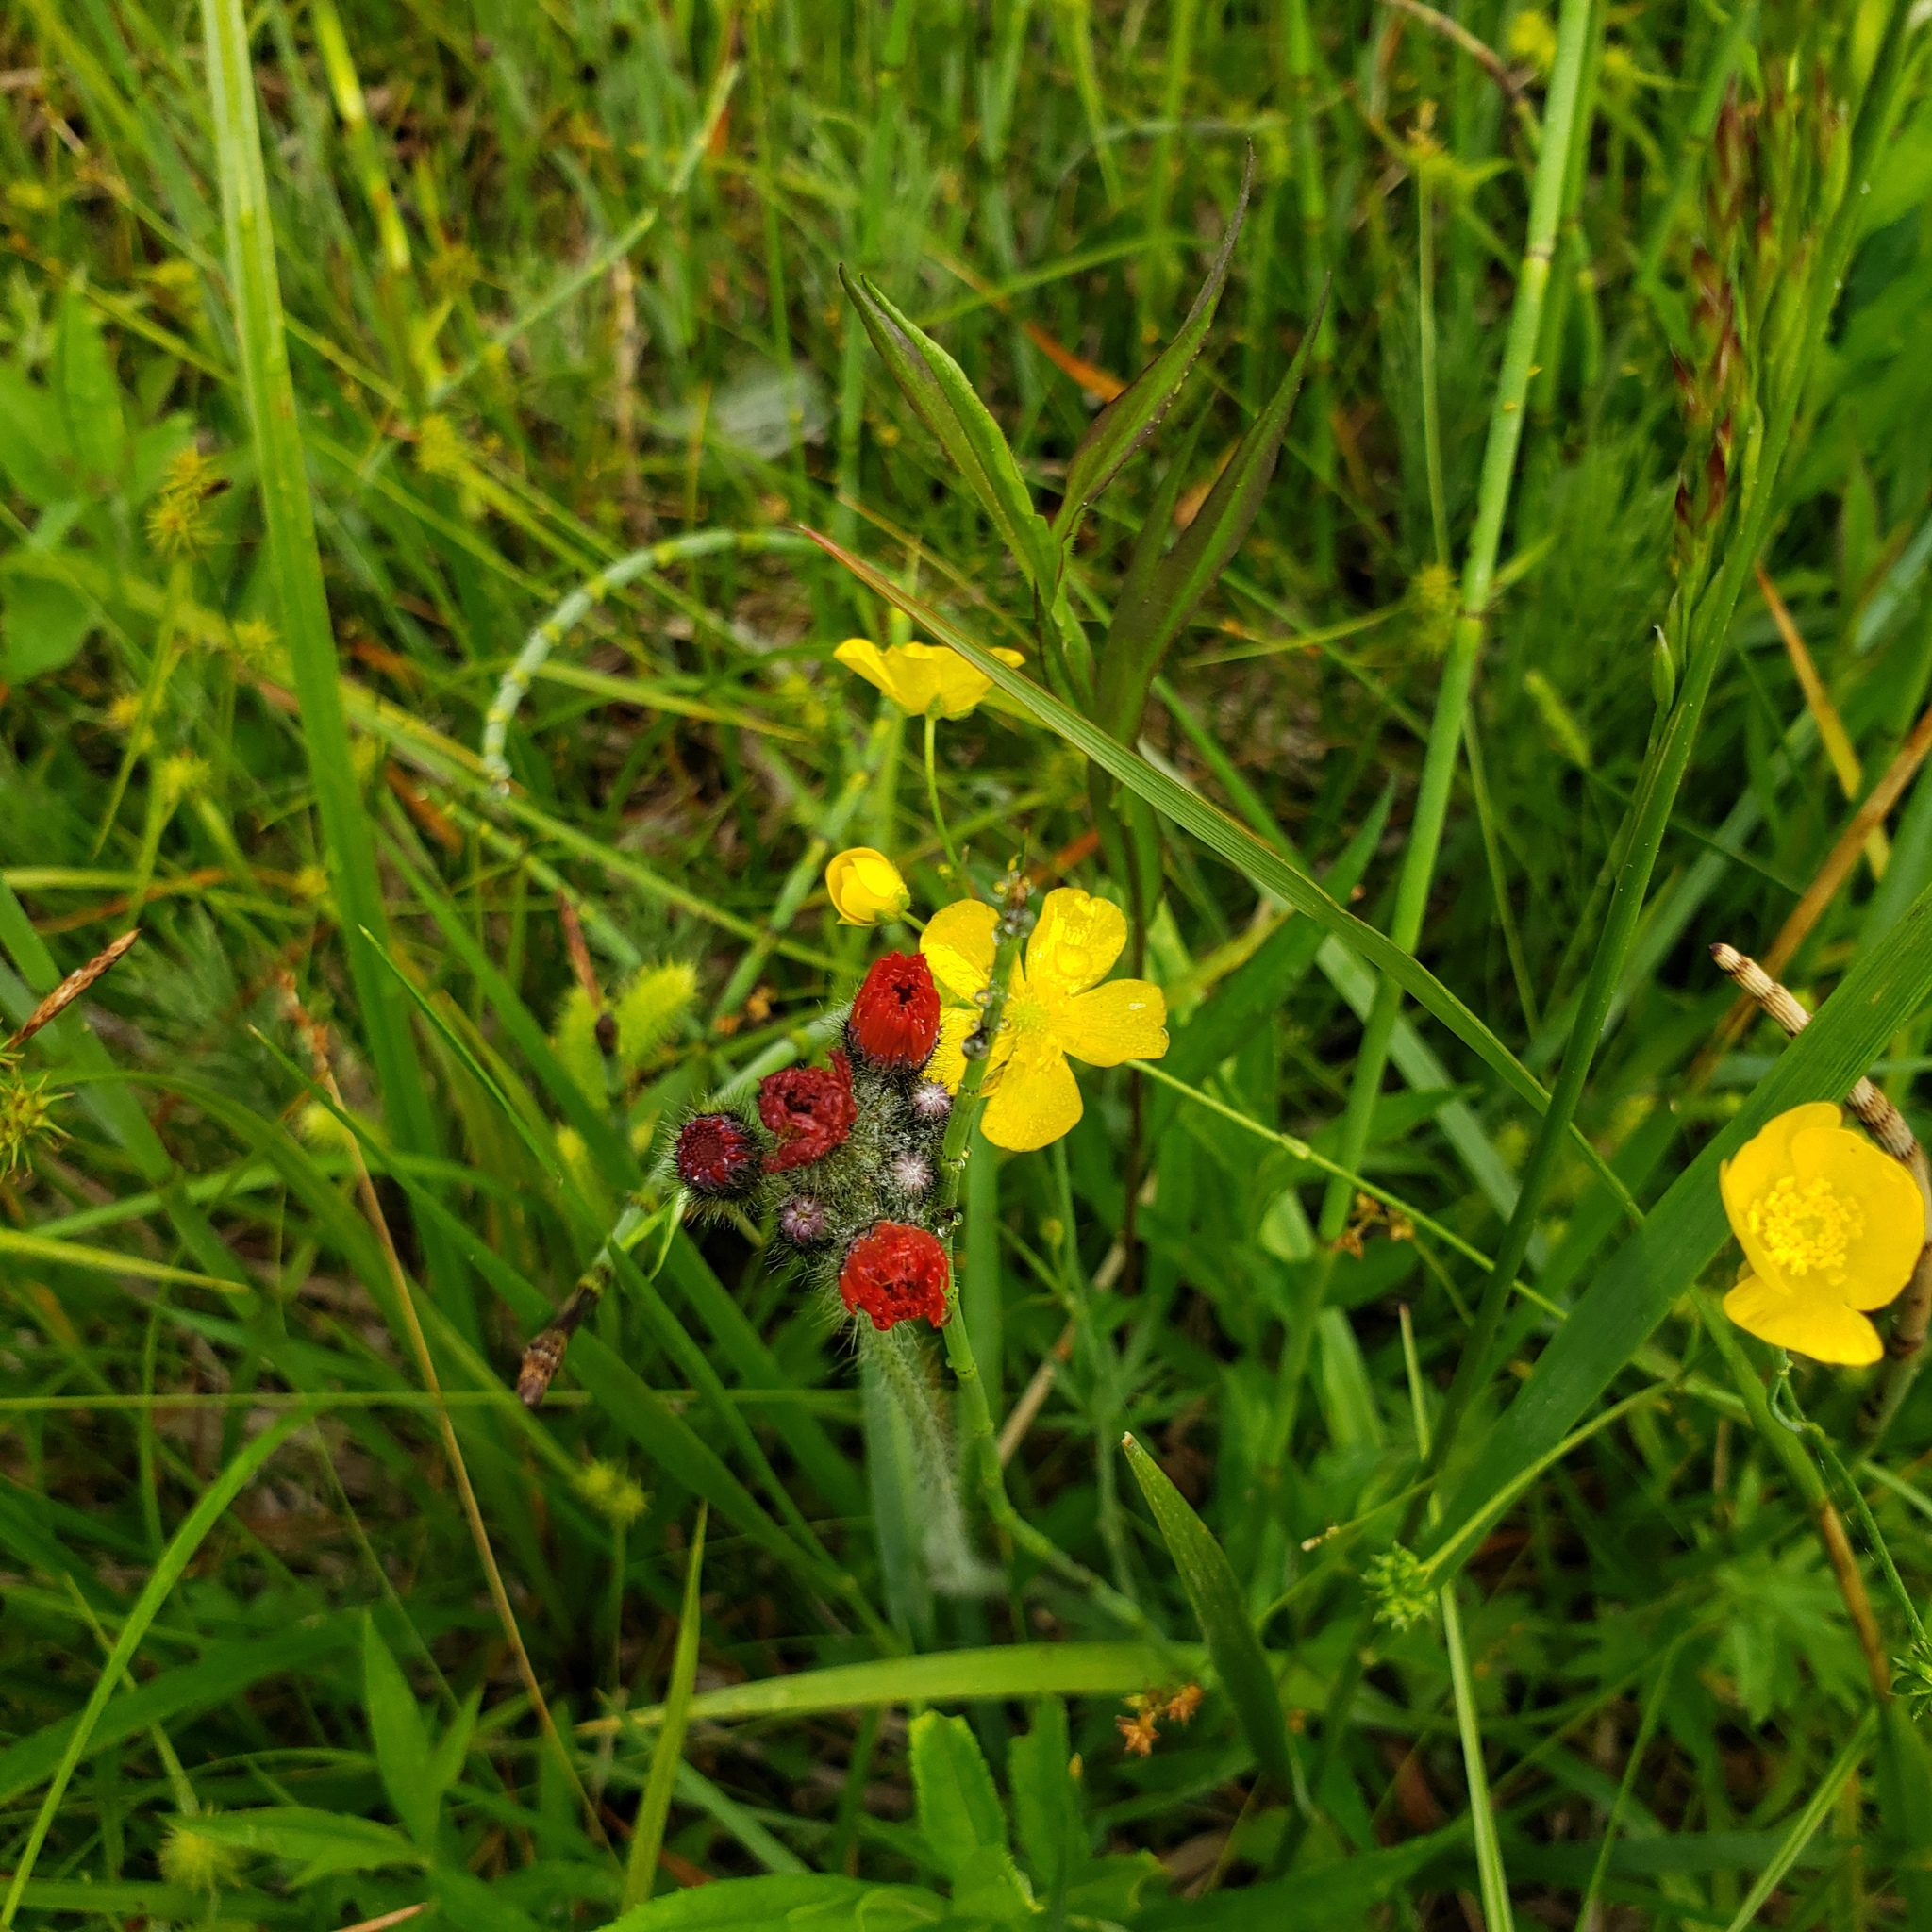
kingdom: Plantae
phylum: Tracheophyta
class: Magnoliopsida
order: Asterales
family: Asteraceae
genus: Pilosella
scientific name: Pilosella aurantiaca
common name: Fox-and-cubs
